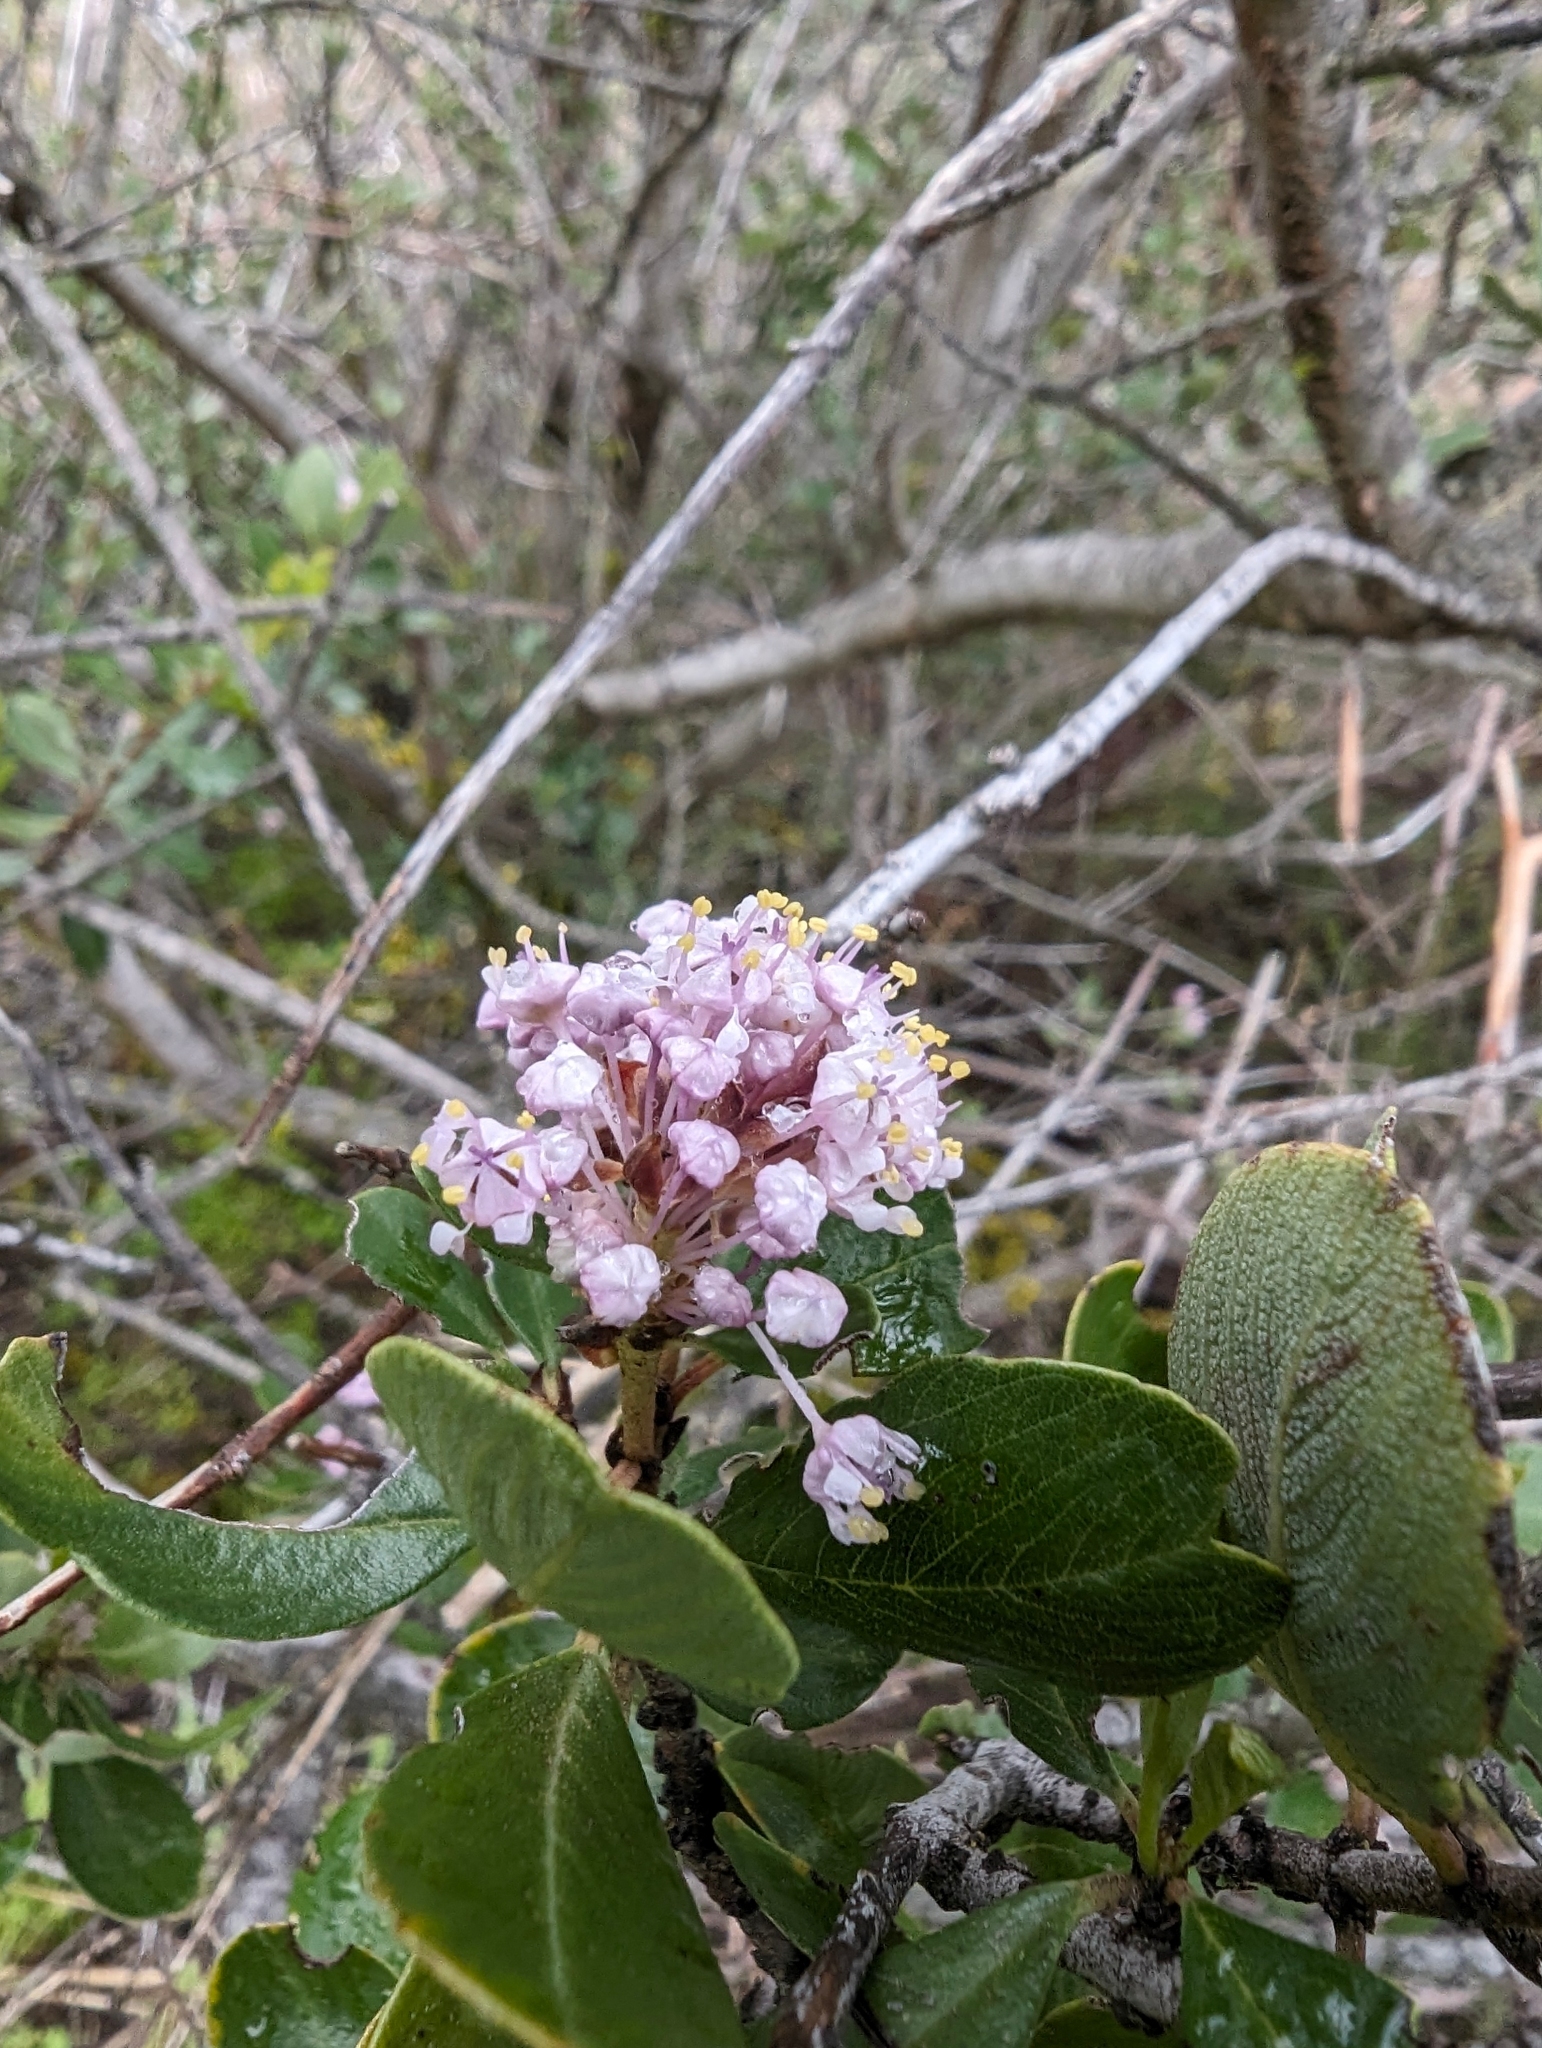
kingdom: Plantae
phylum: Tracheophyta
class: Magnoliopsida
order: Rosales
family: Rhamnaceae
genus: Ceanothus
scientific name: Ceanothus cuneatus
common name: Cuneate ceanothus
